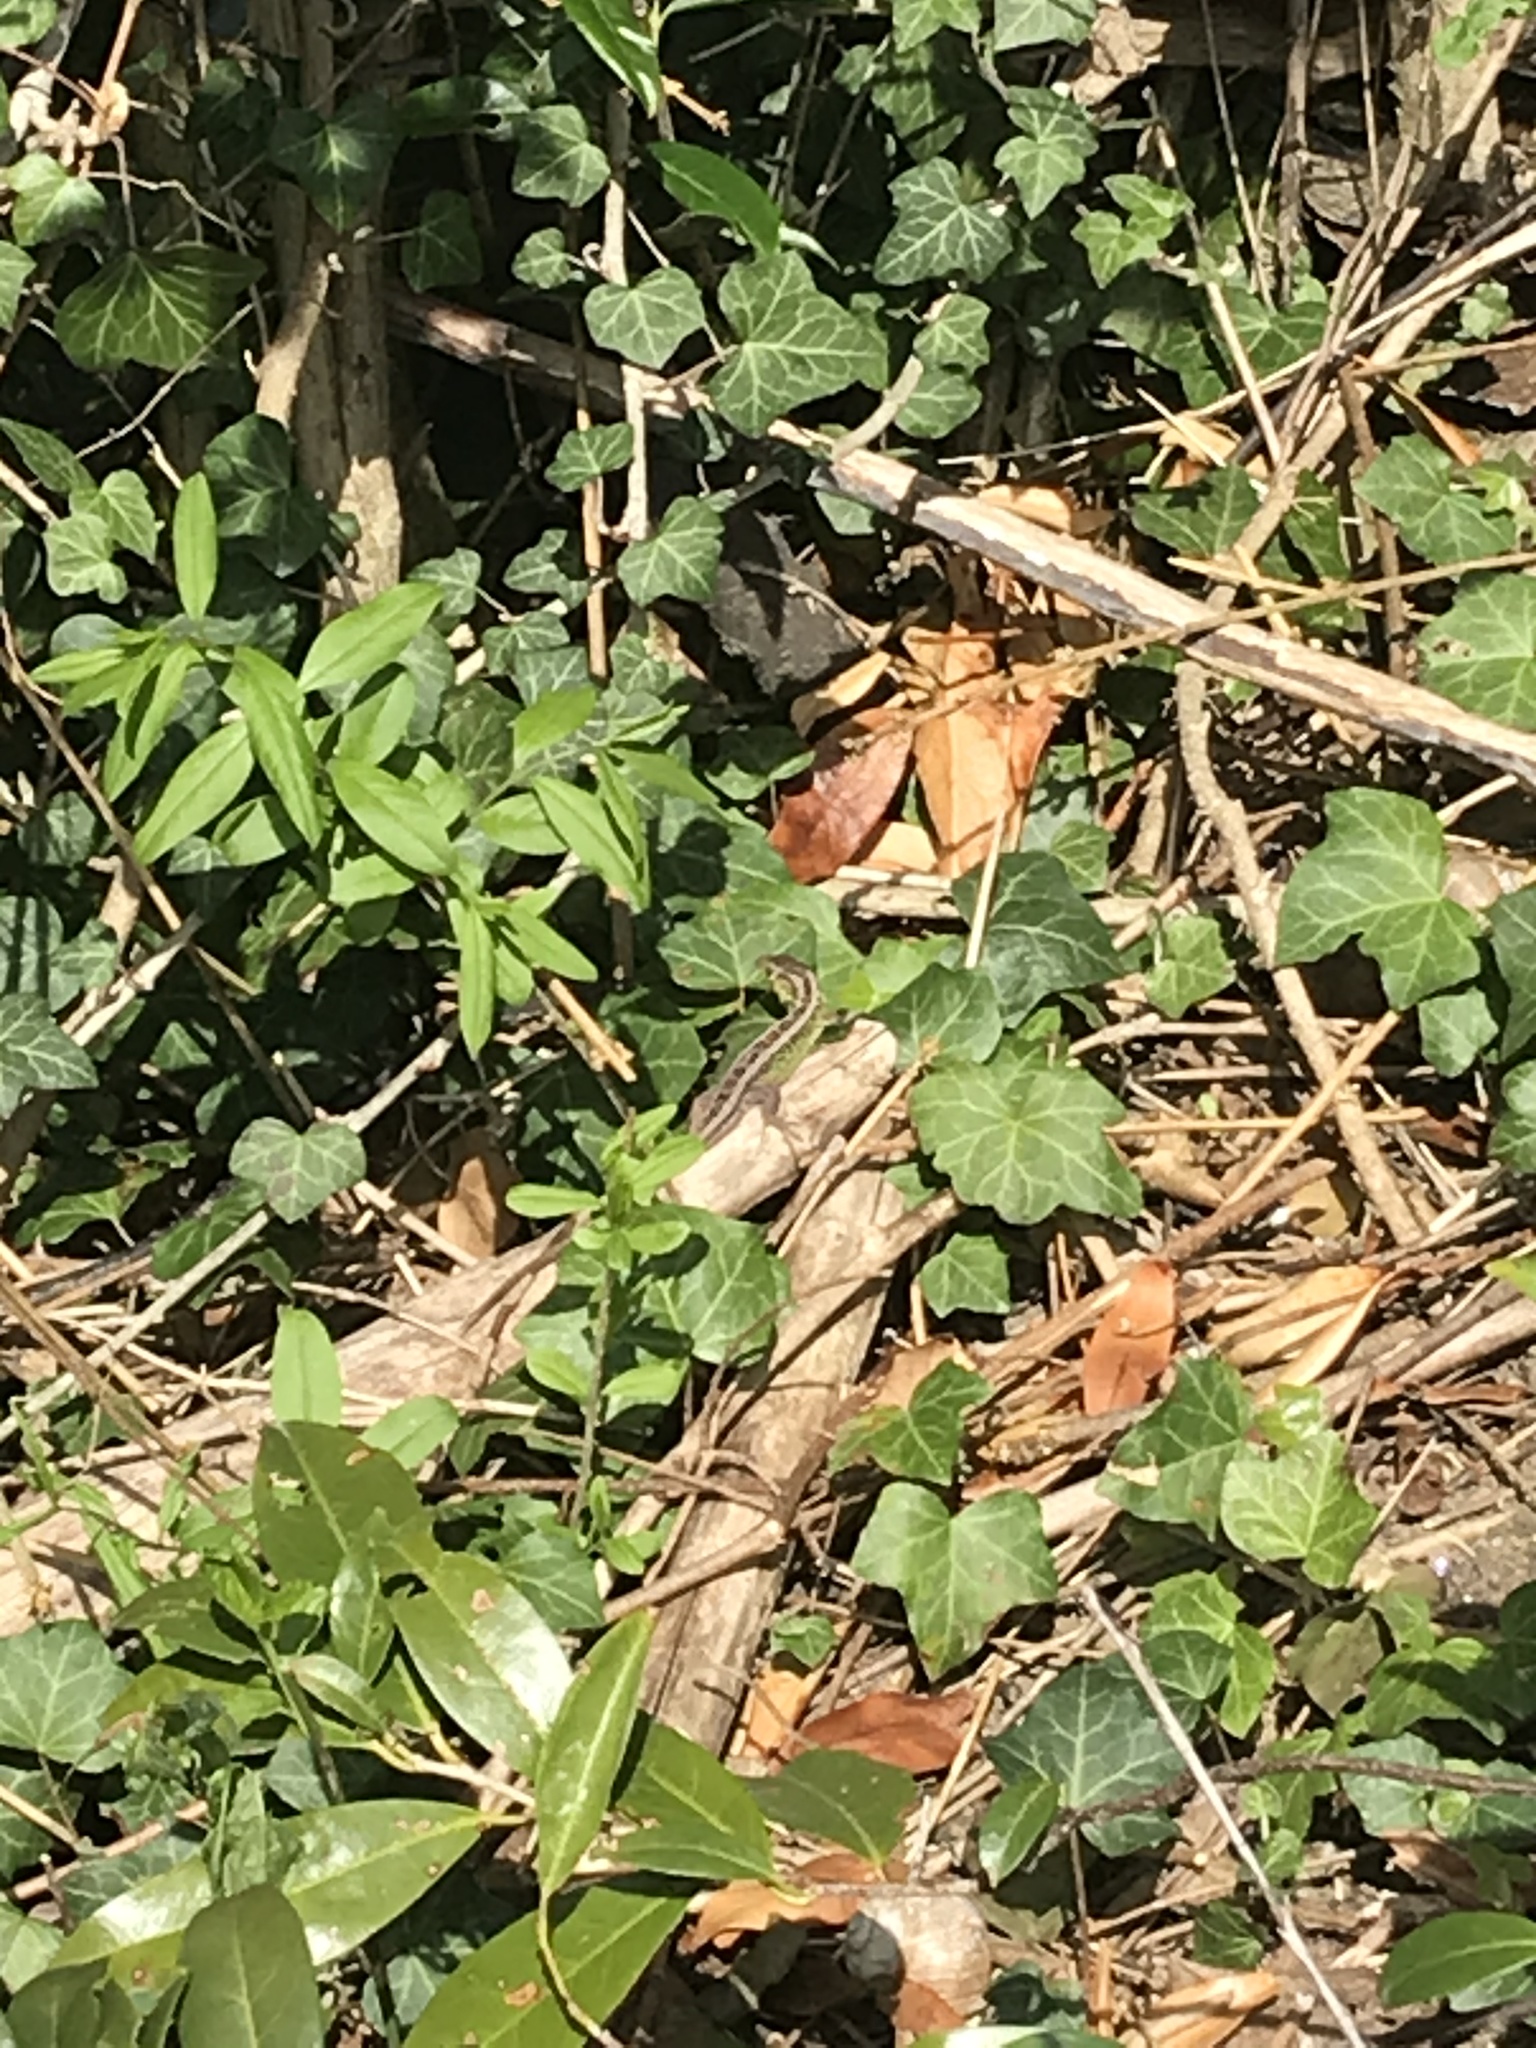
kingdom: Animalia
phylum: Chordata
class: Squamata
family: Lacertidae
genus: Lacerta
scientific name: Lacerta agilis
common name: Sand lizard
